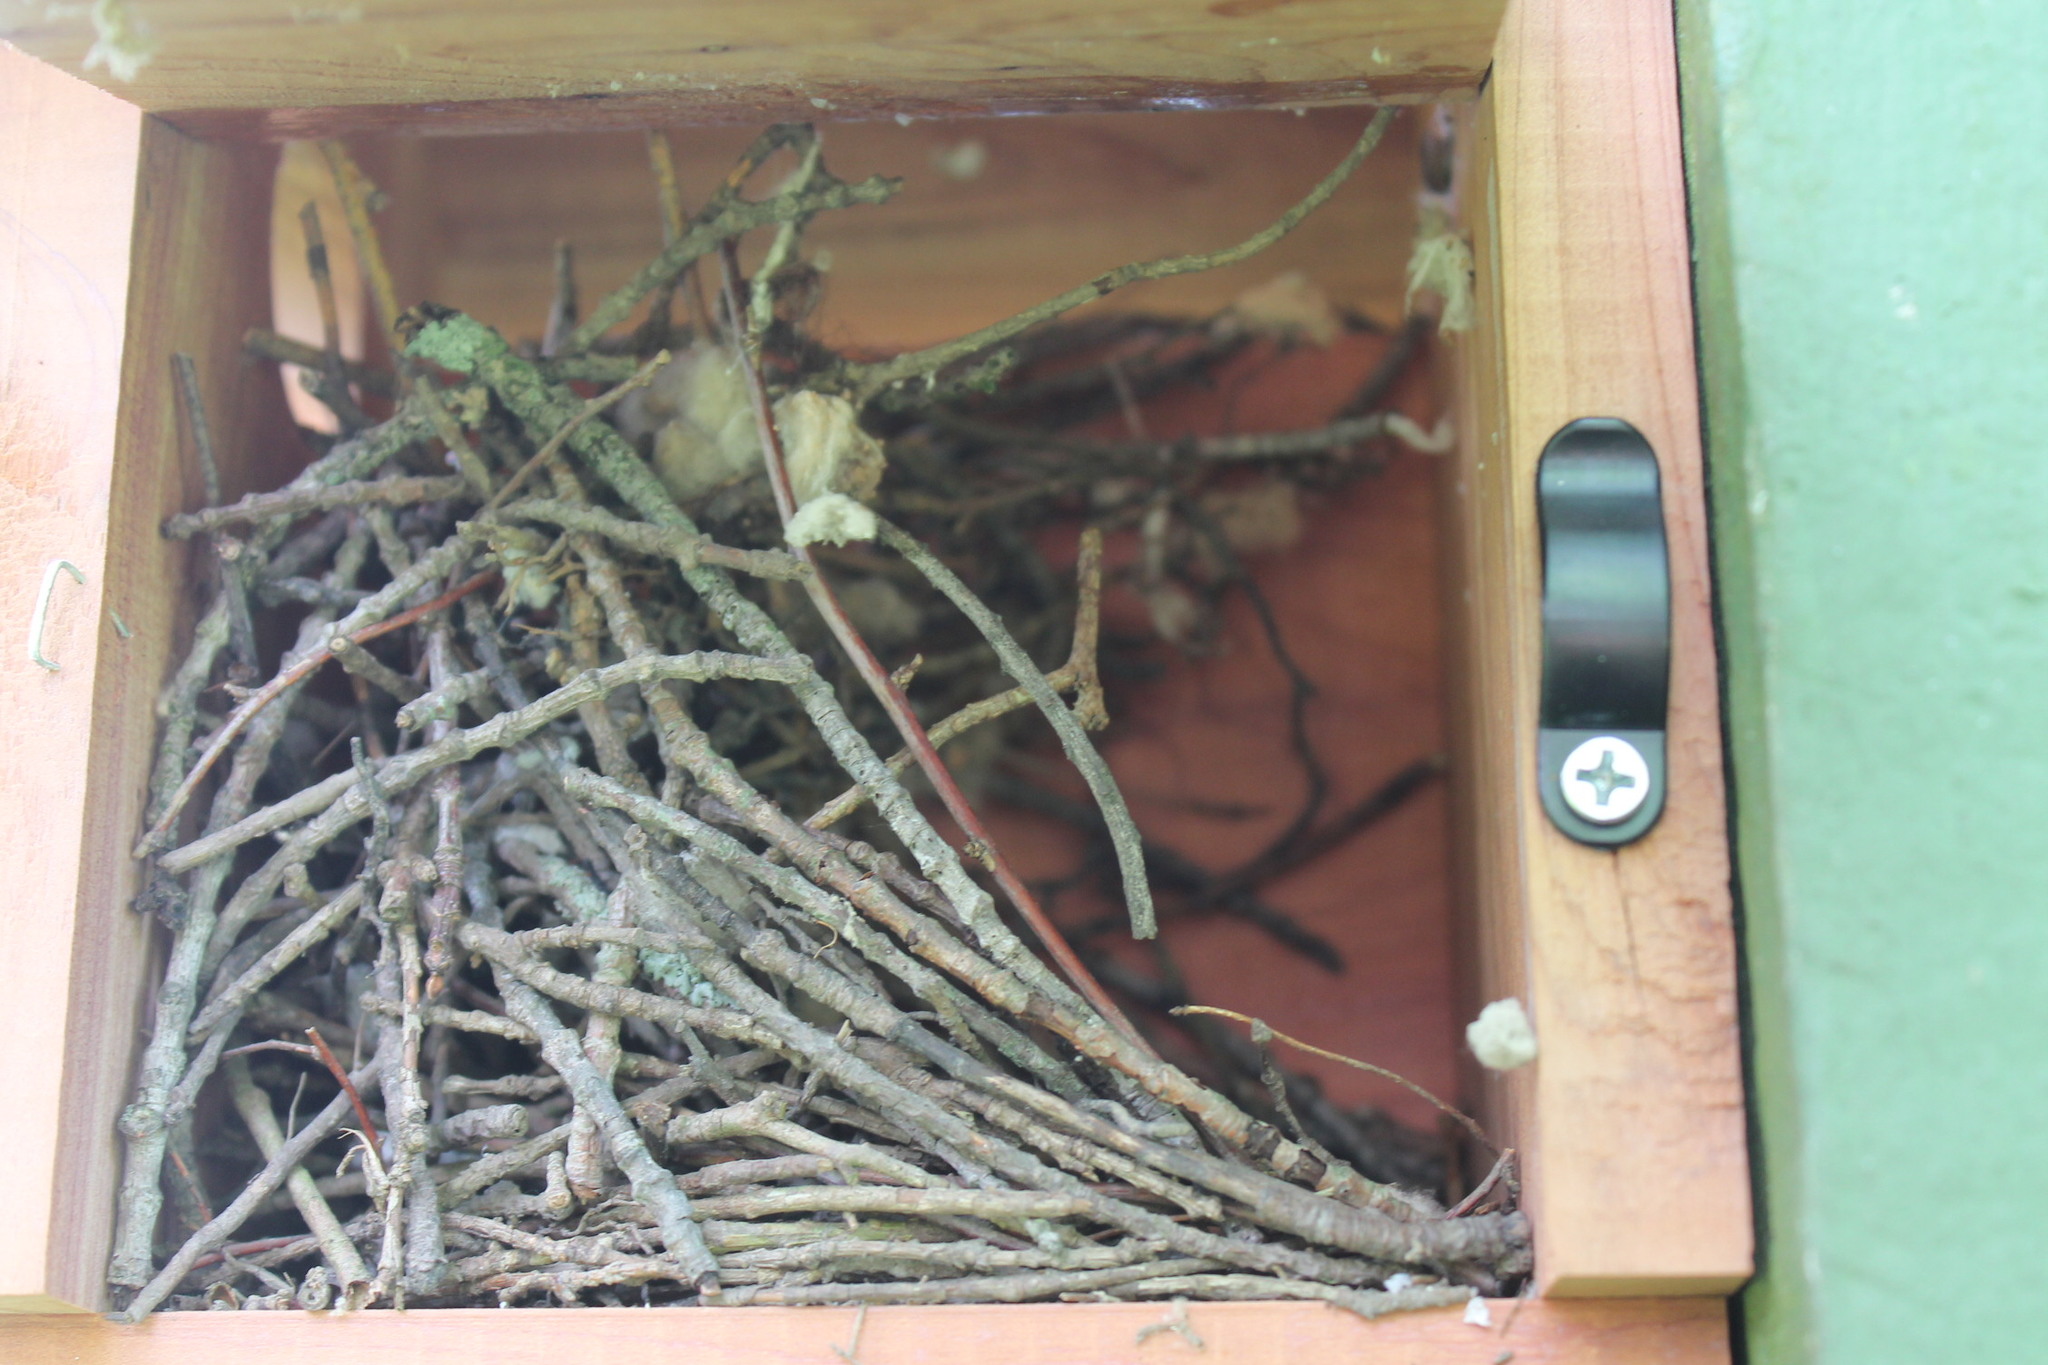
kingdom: Animalia
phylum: Chordata
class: Aves
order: Passeriformes
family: Troglodytidae
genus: Troglodytes
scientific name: Troglodytes aedon
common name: House wren
